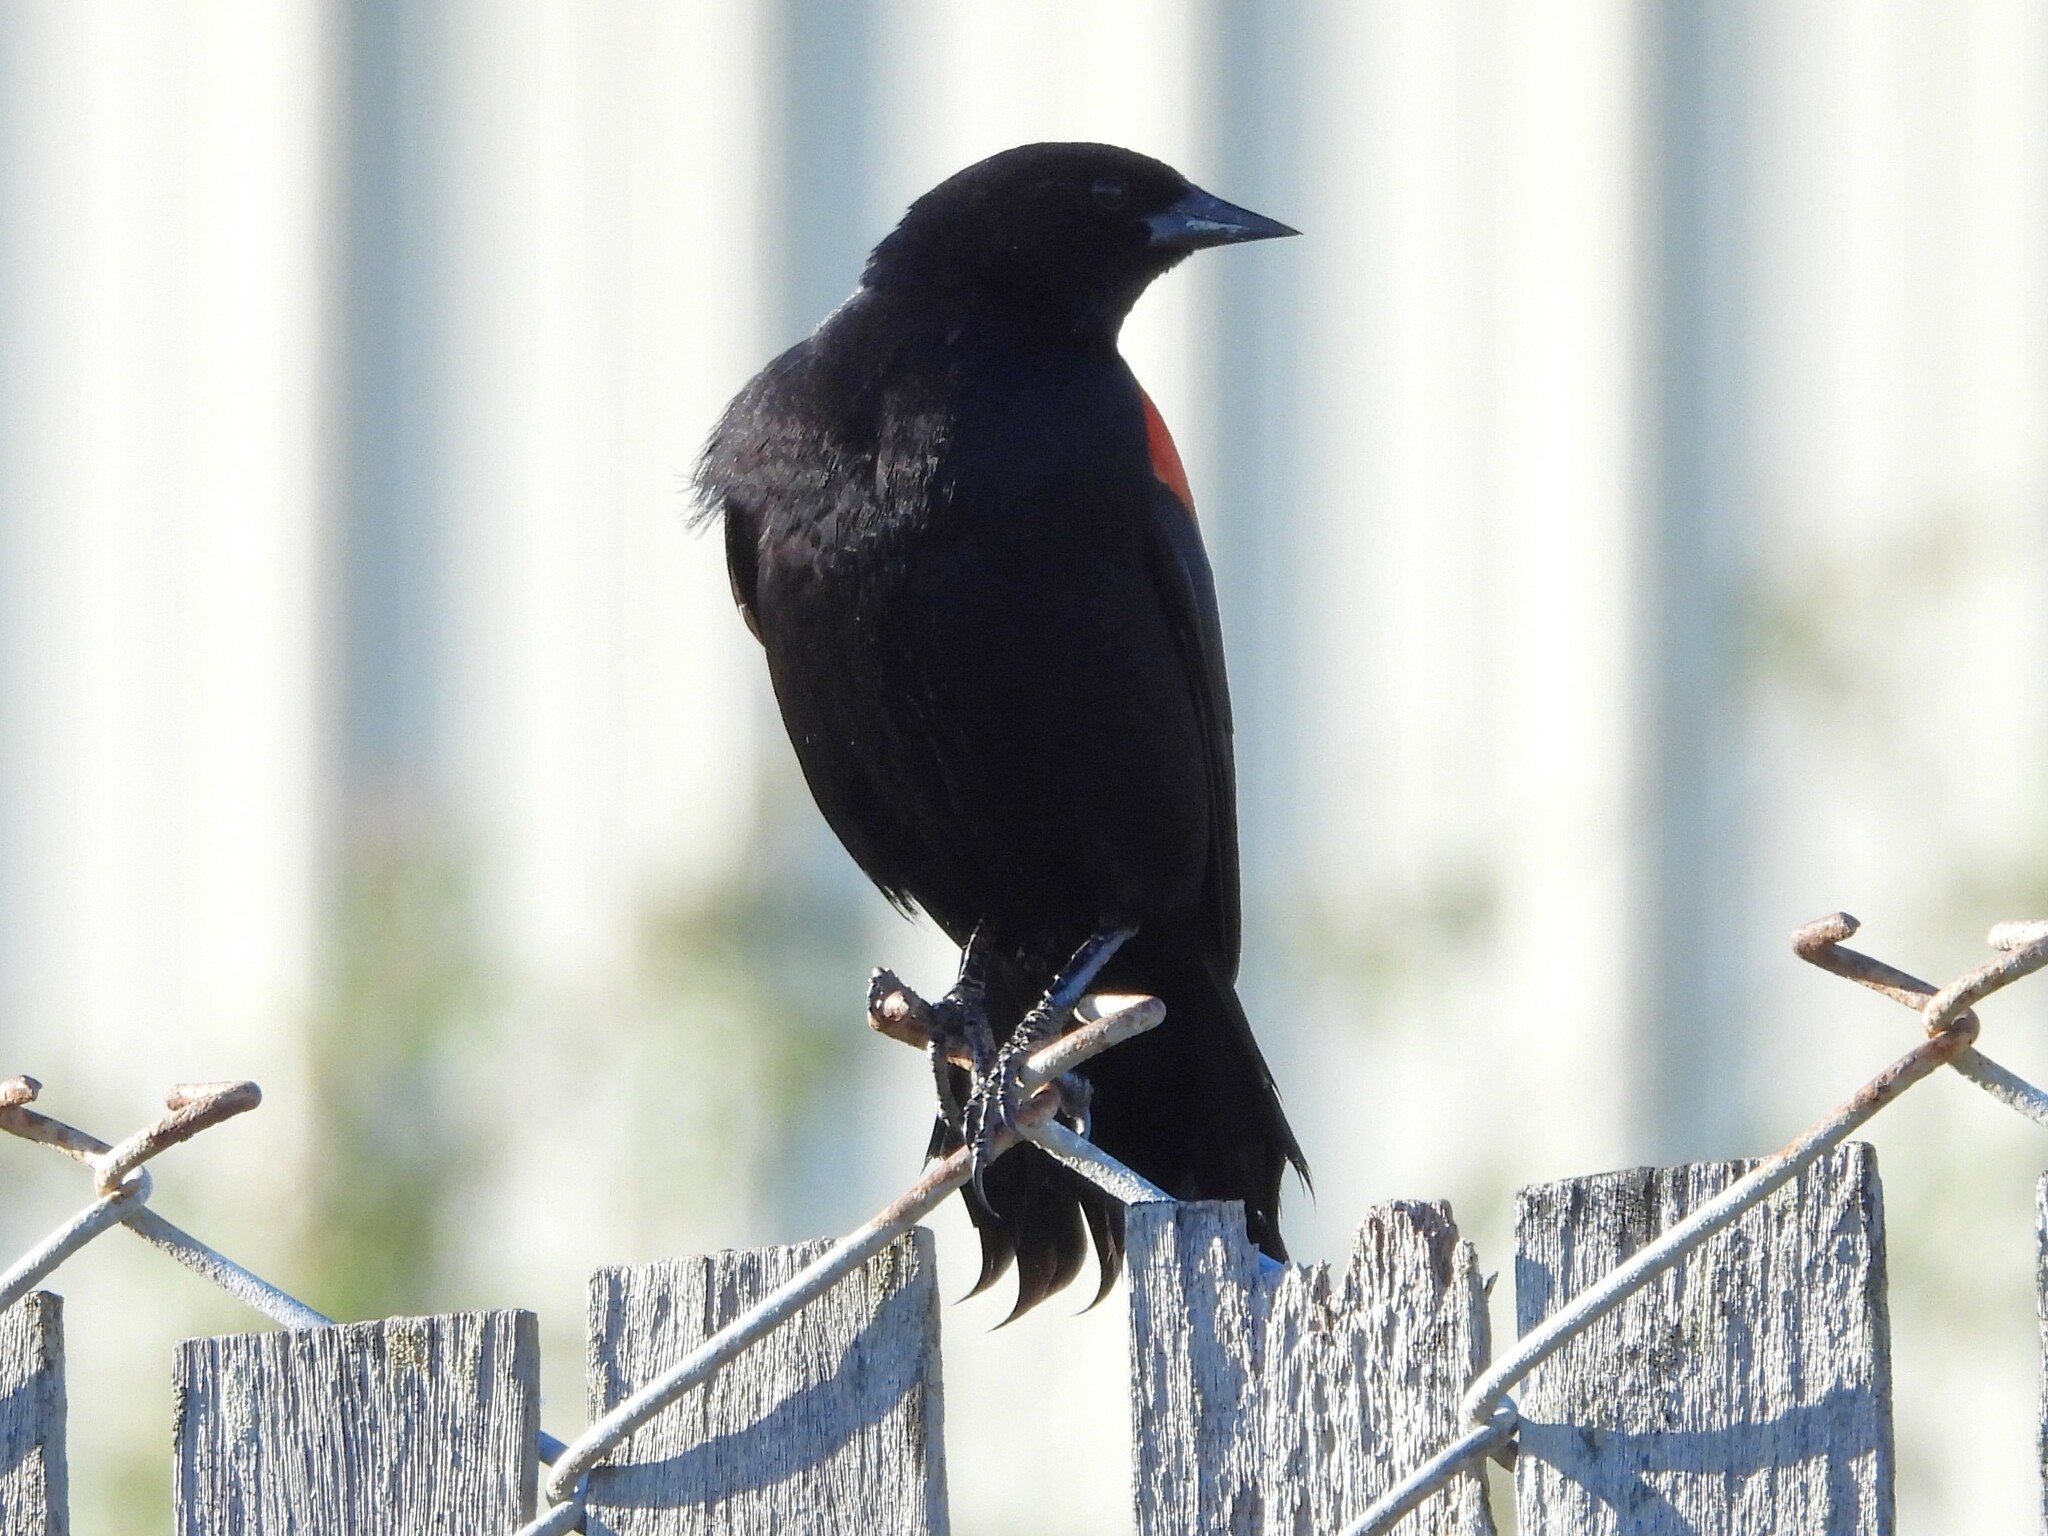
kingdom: Animalia
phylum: Chordata
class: Aves
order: Passeriformes
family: Icteridae
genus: Agelaius
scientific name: Agelaius phoeniceus
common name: Red-winged blackbird
